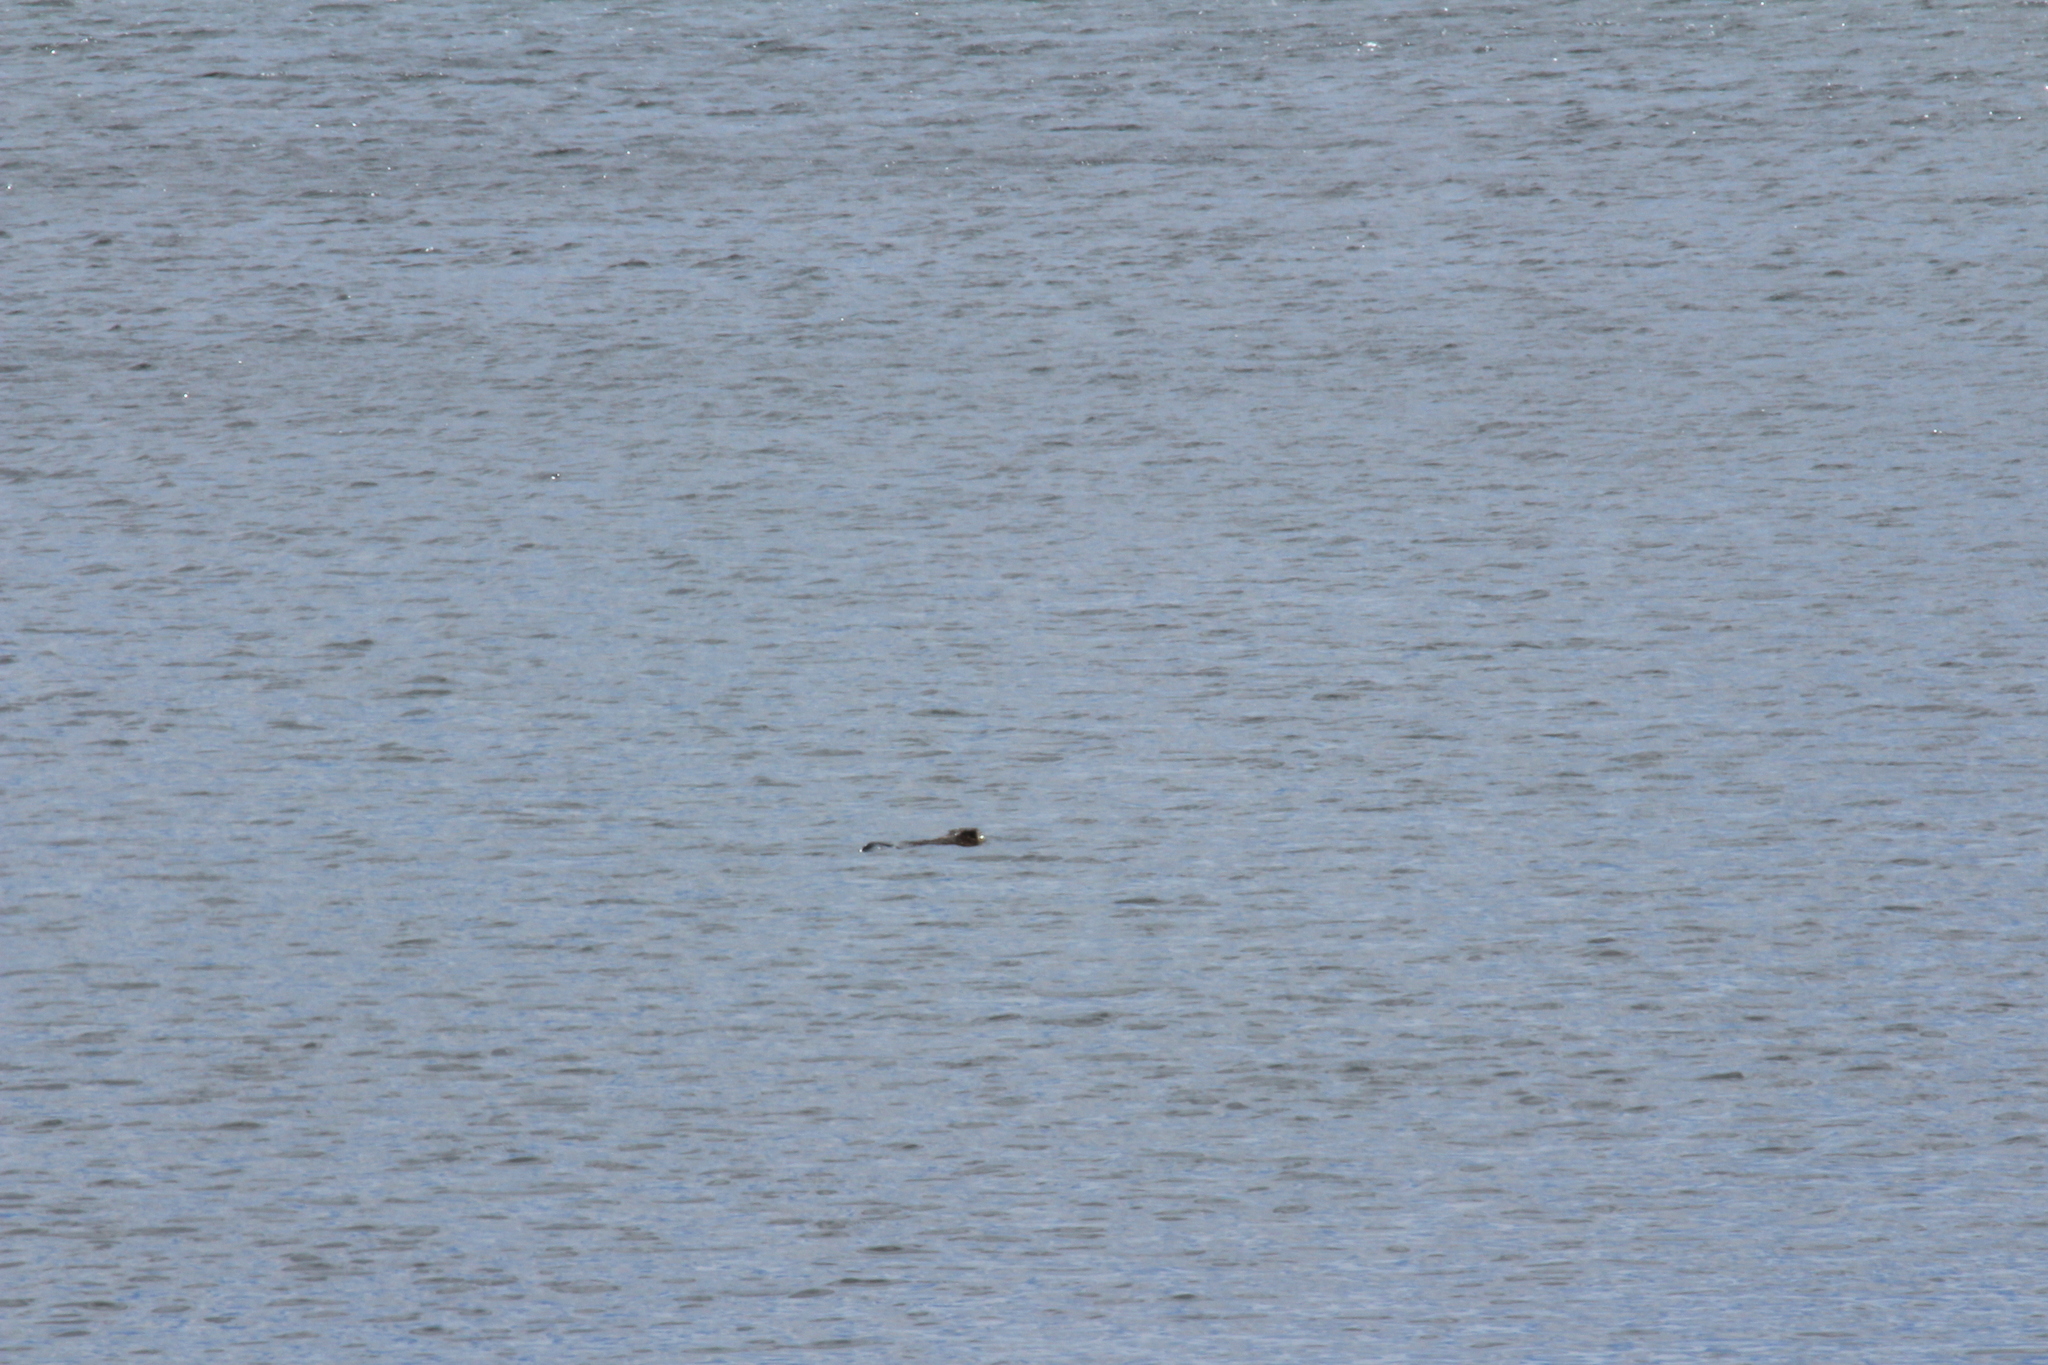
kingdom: Animalia
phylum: Chordata
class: Mammalia
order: Rodentia
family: Cricetidae
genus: Ondatra
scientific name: Ondatra zibethicus
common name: Muskrat
